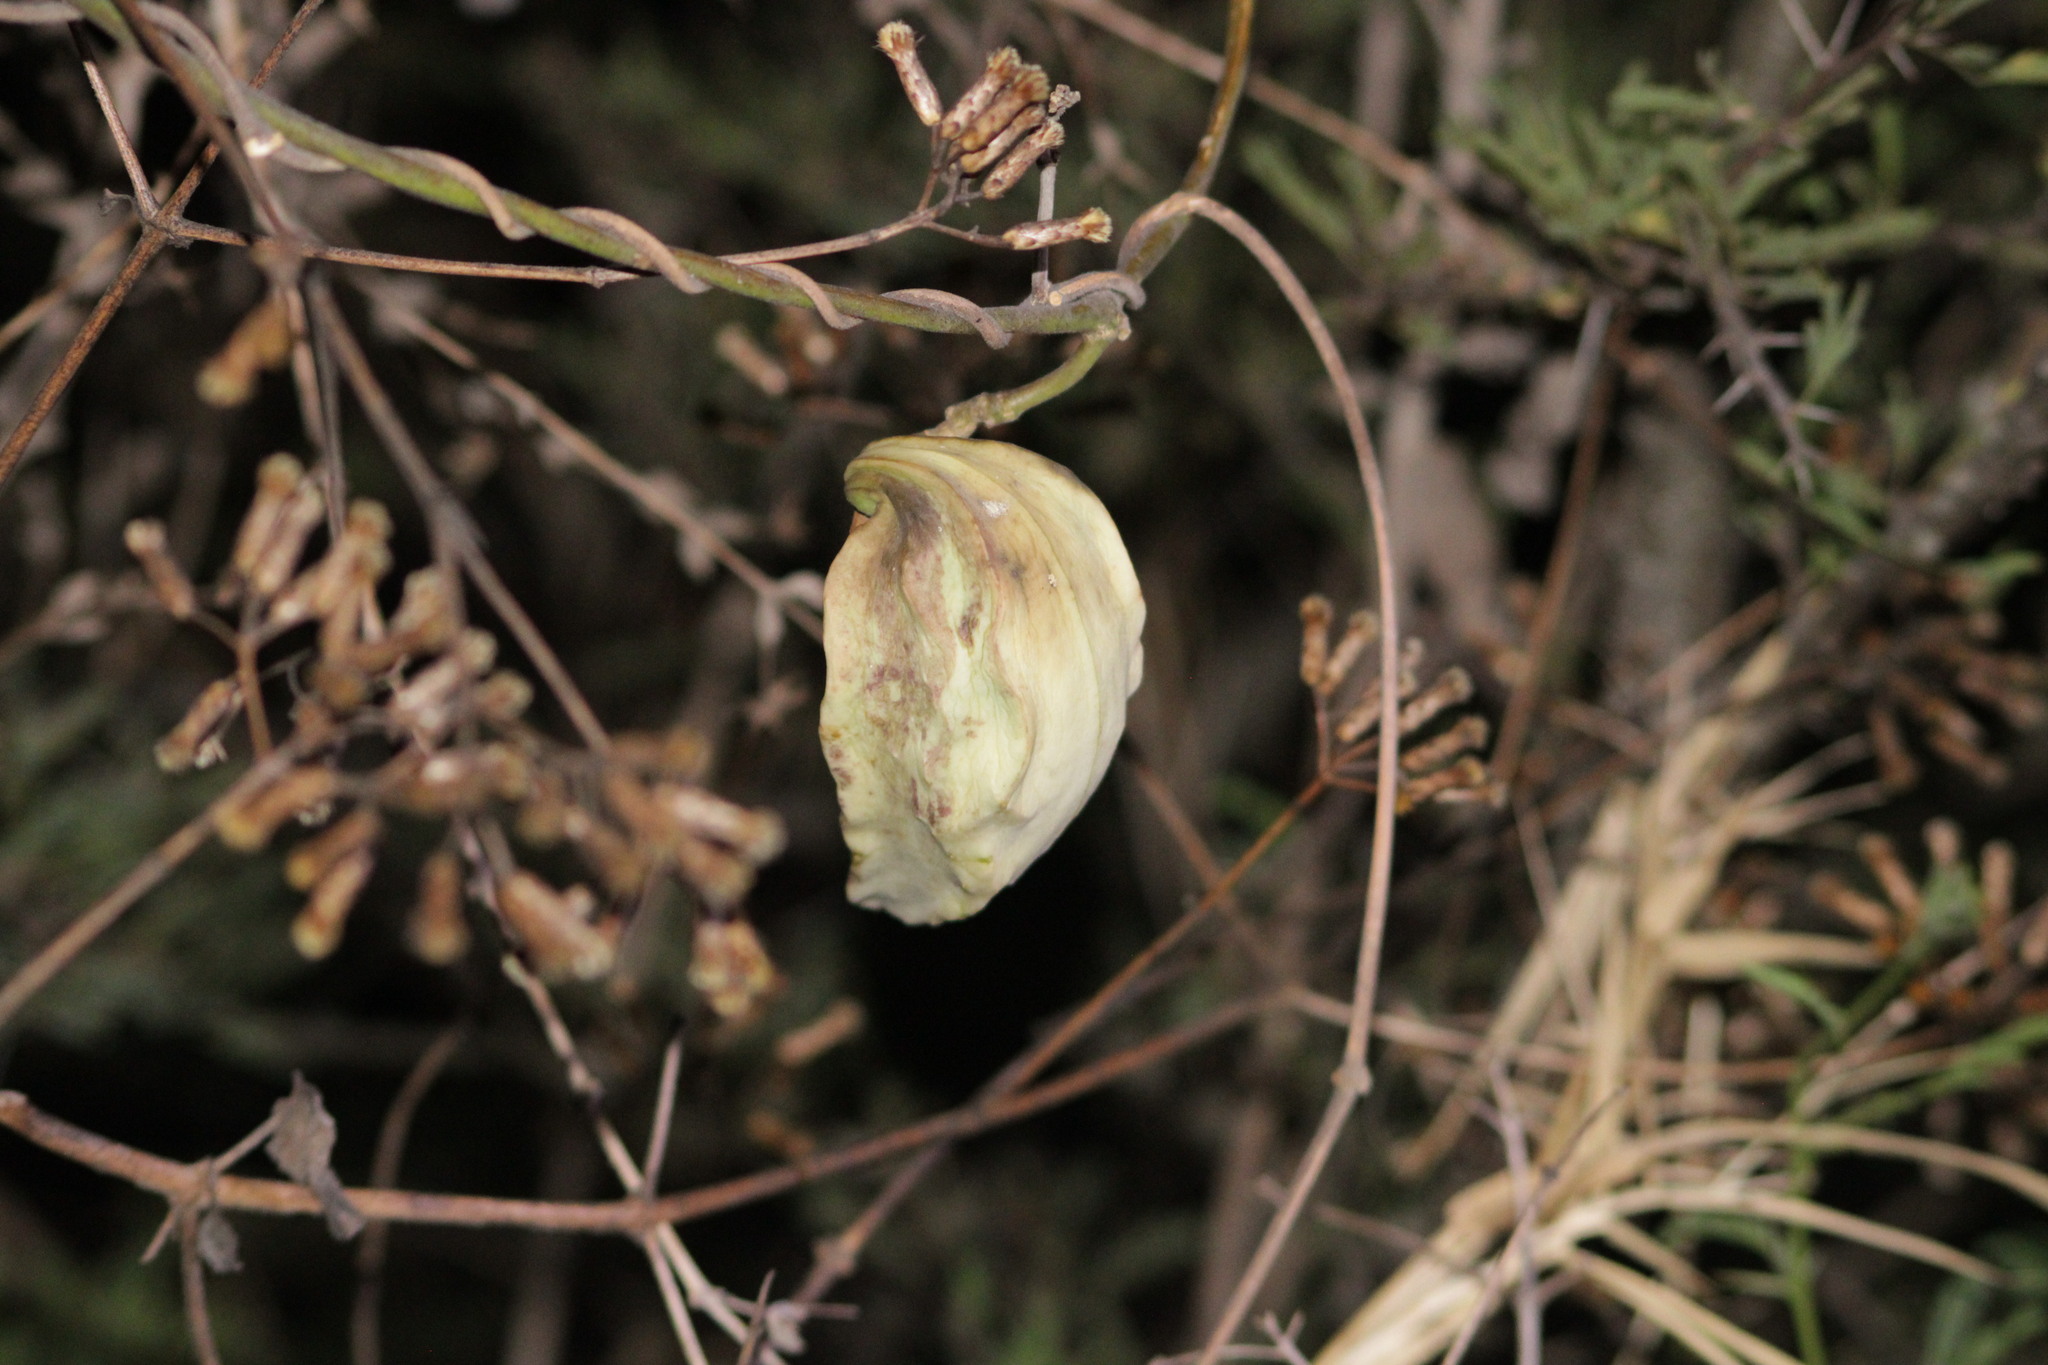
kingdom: Plantae
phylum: Tracheophyta
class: Magnoliopsida
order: Gentianales
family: Apocynaceae
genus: Gonolobus
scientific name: Gonolobus sororius
